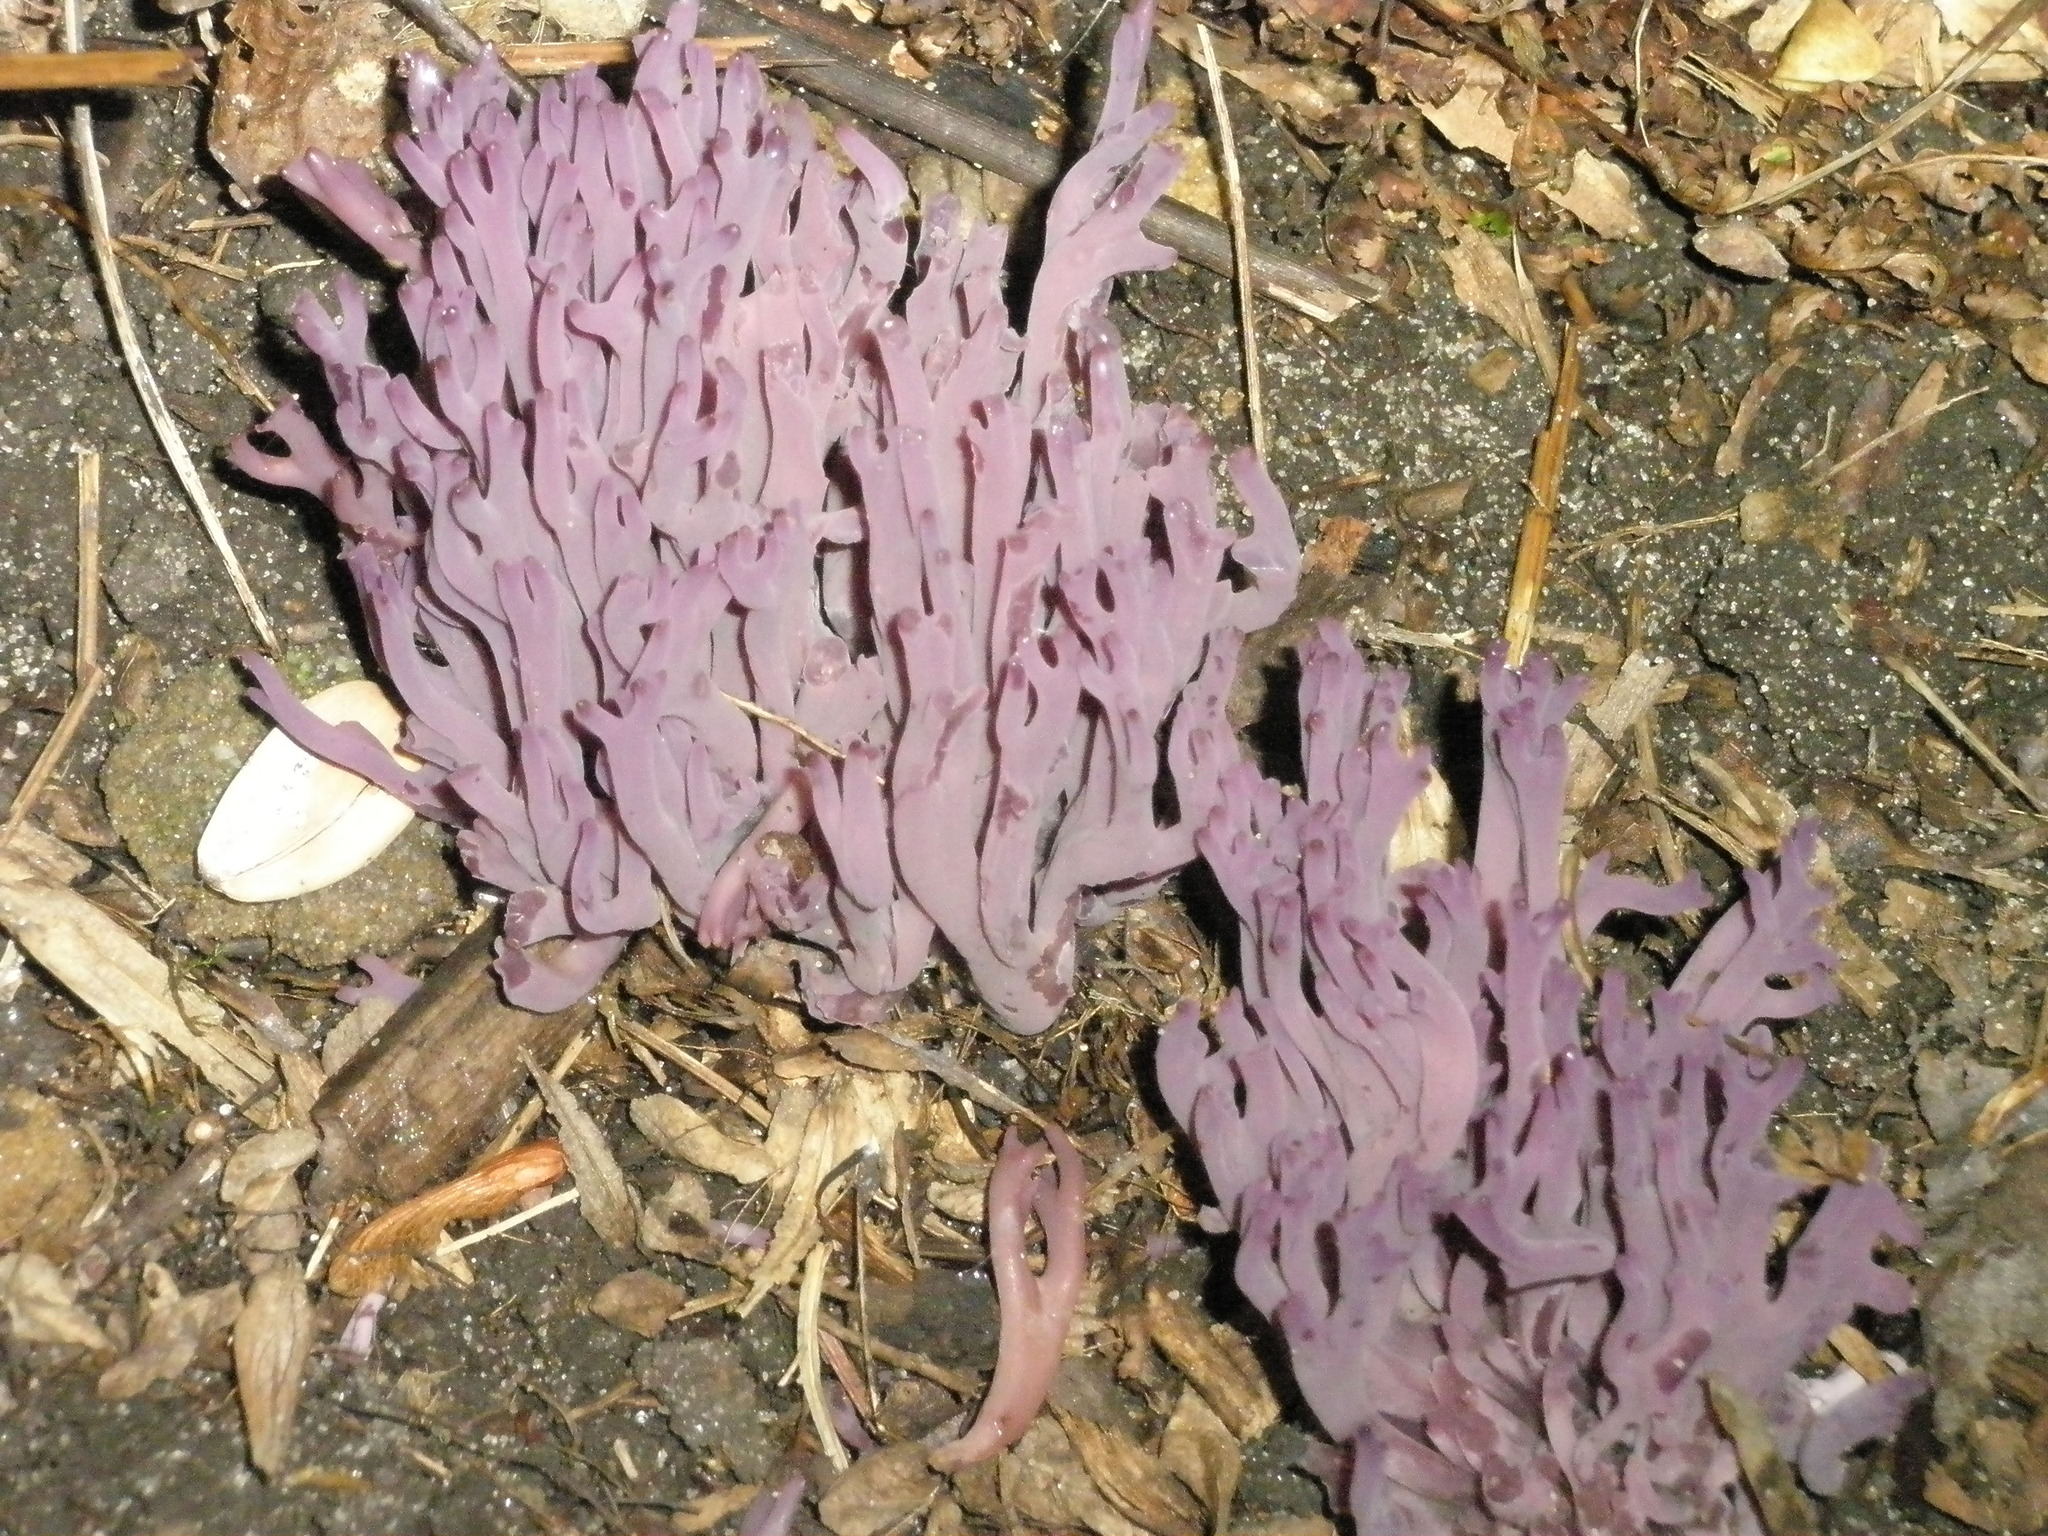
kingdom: Fungi
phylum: Basidiomycota
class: Agaricomycetes
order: Agaricales
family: Clavariaceae
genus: Clavaria
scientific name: Clavaria zollingeri
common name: Violet coral
